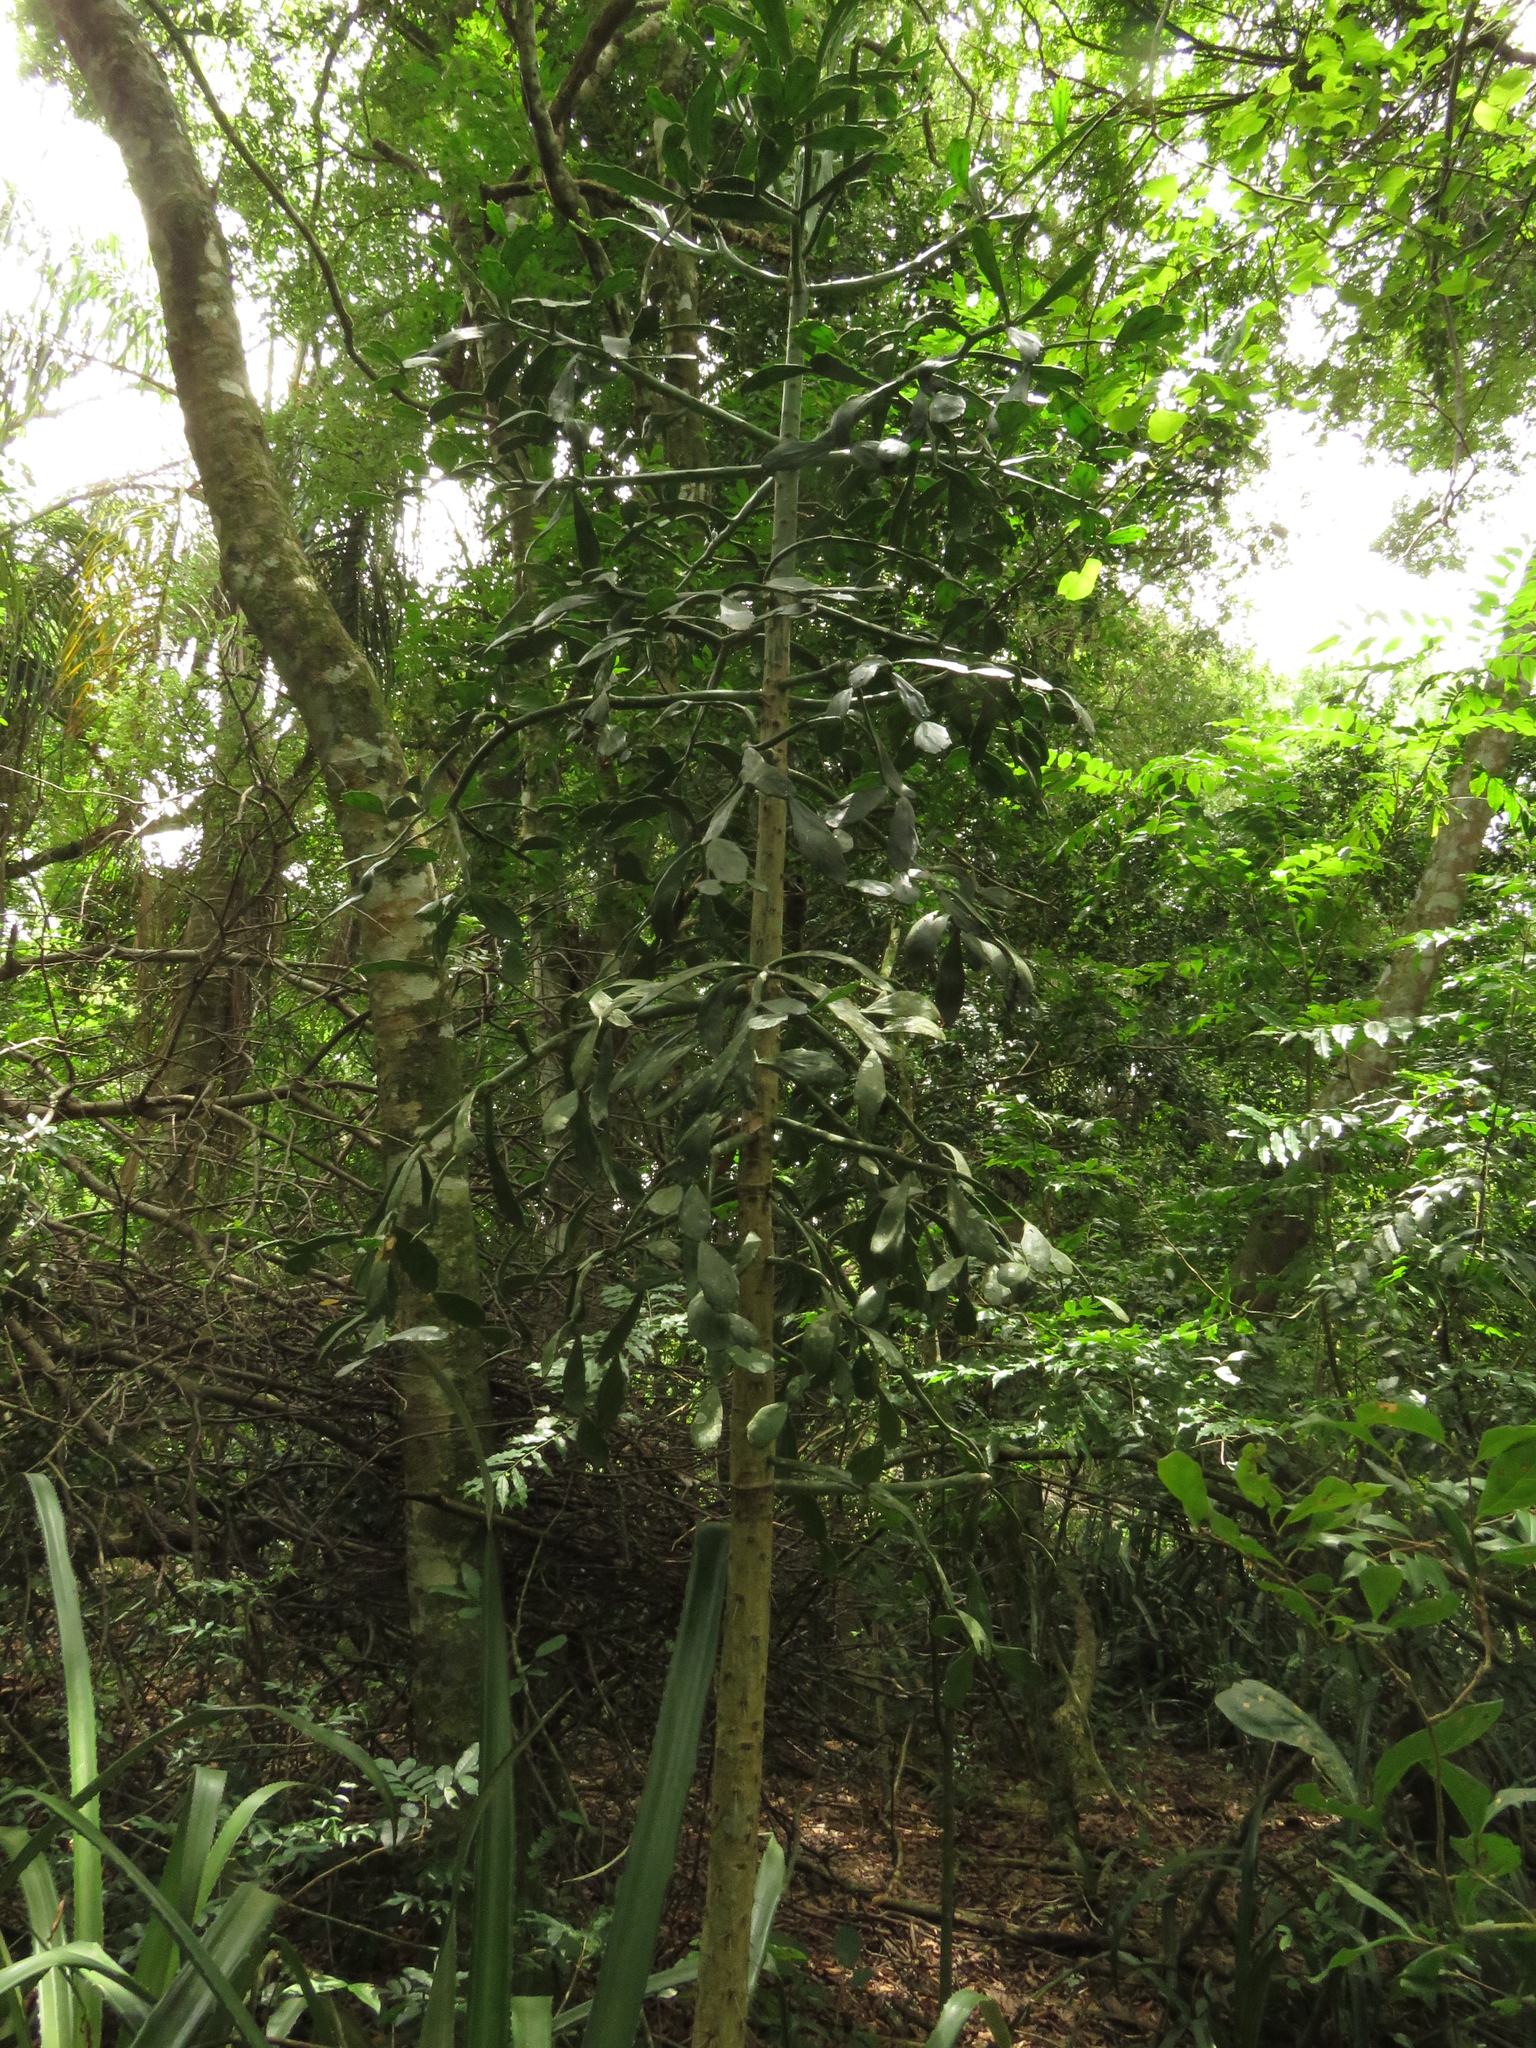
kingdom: Plantae
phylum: Tracheophyta
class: Magnoliopsida
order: Caryophyllales
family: Cactaceae
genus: Brasiliopuntia
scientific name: Brasiliopuntia brasiliensis
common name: Brazilian pricklypear
